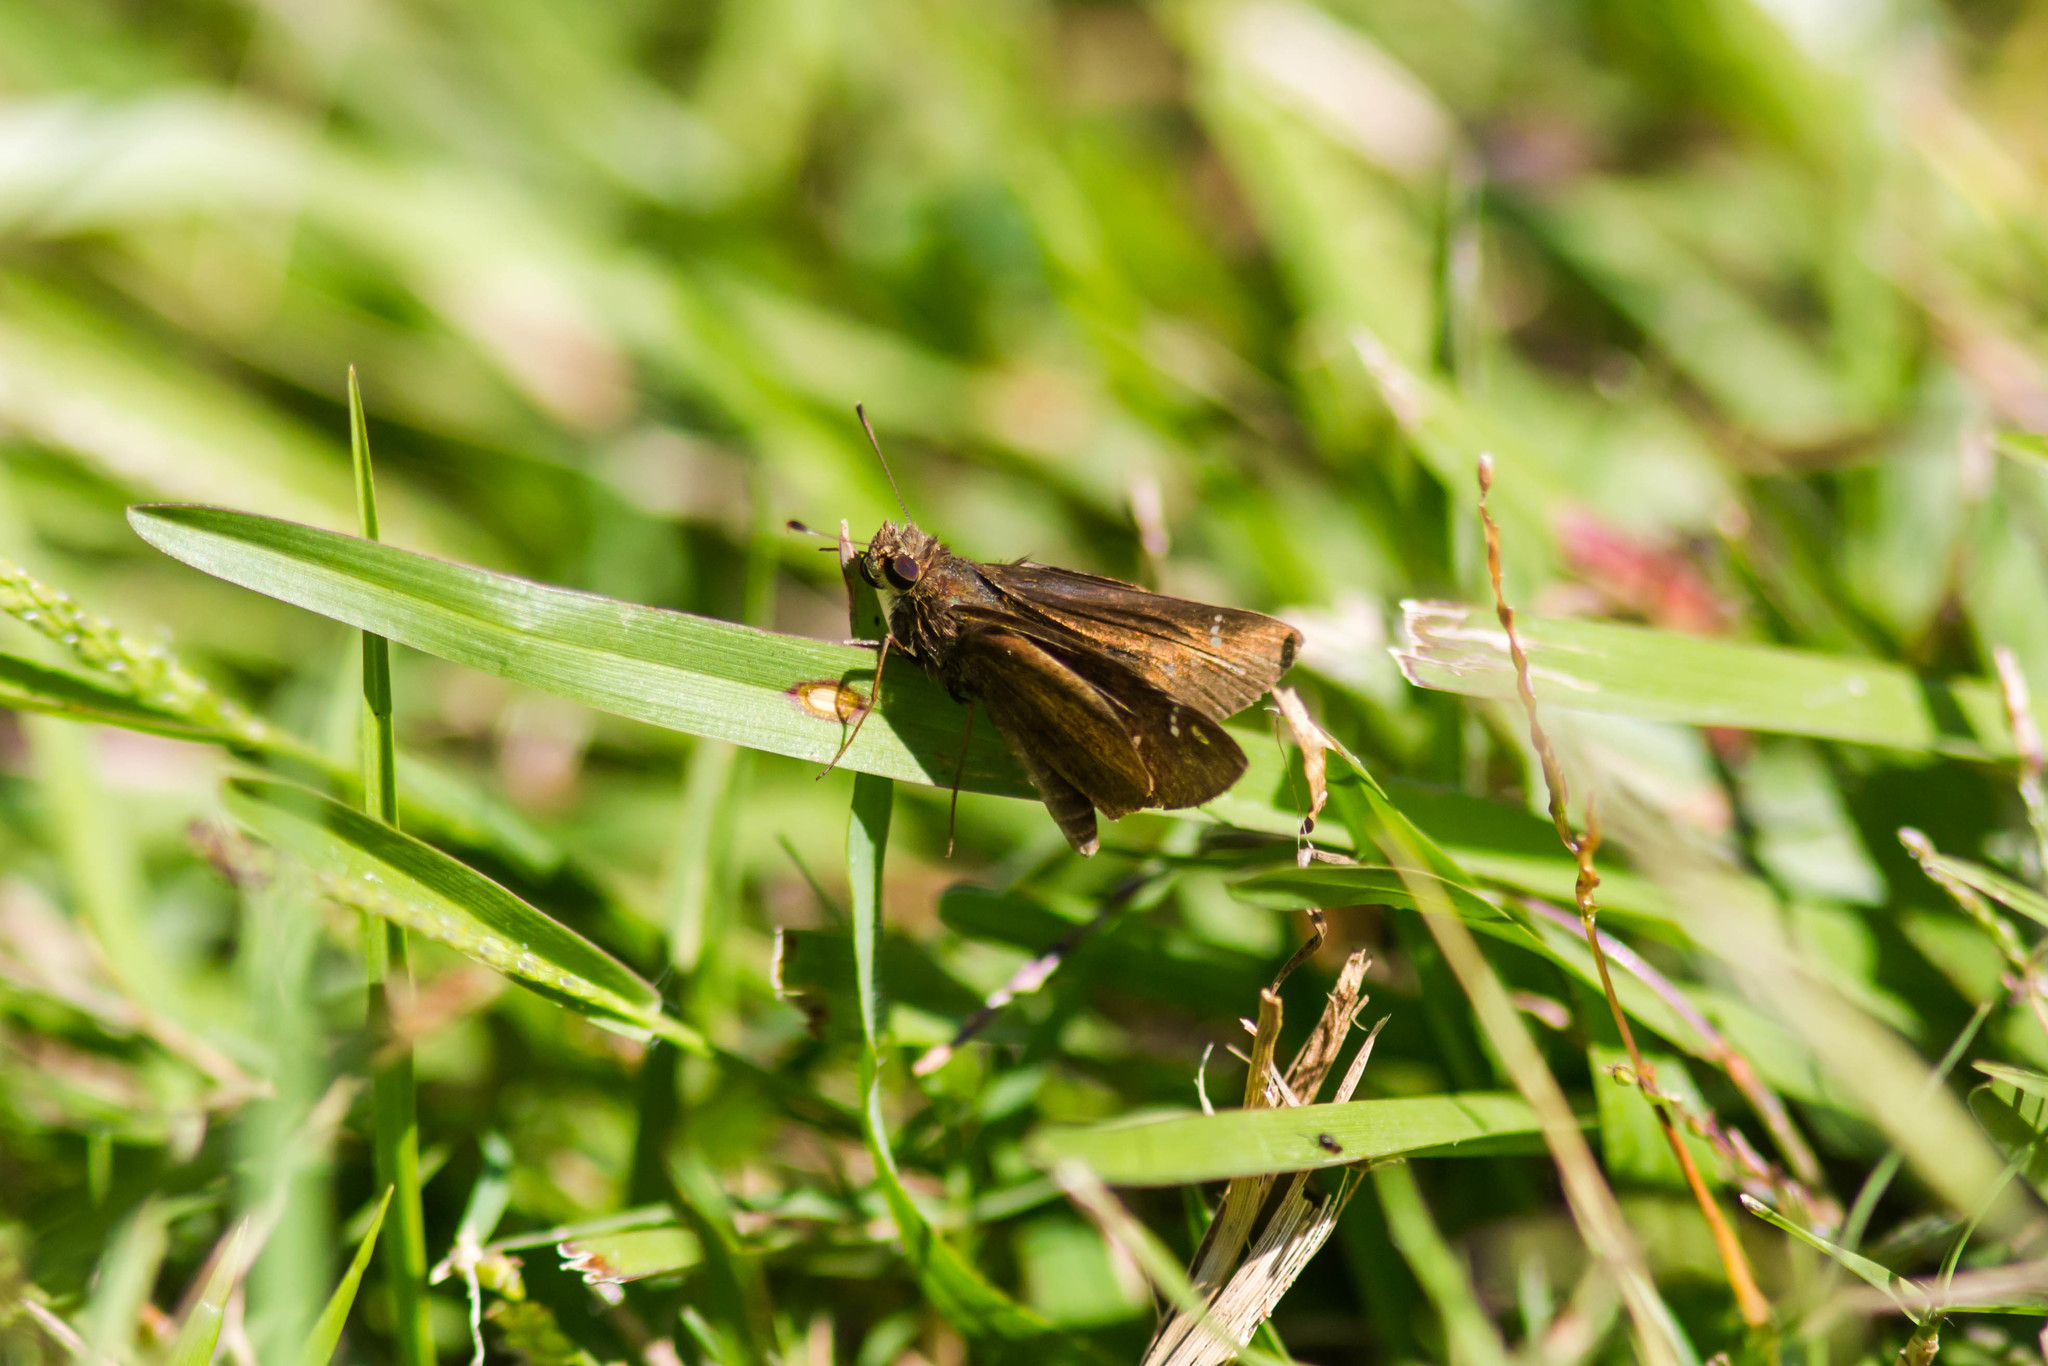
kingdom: Animalia
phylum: Arthropoda
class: Insecta
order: Lepidoptera
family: Hesperiidae
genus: Lerema
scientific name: Lerema accius
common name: Clouded skipper
